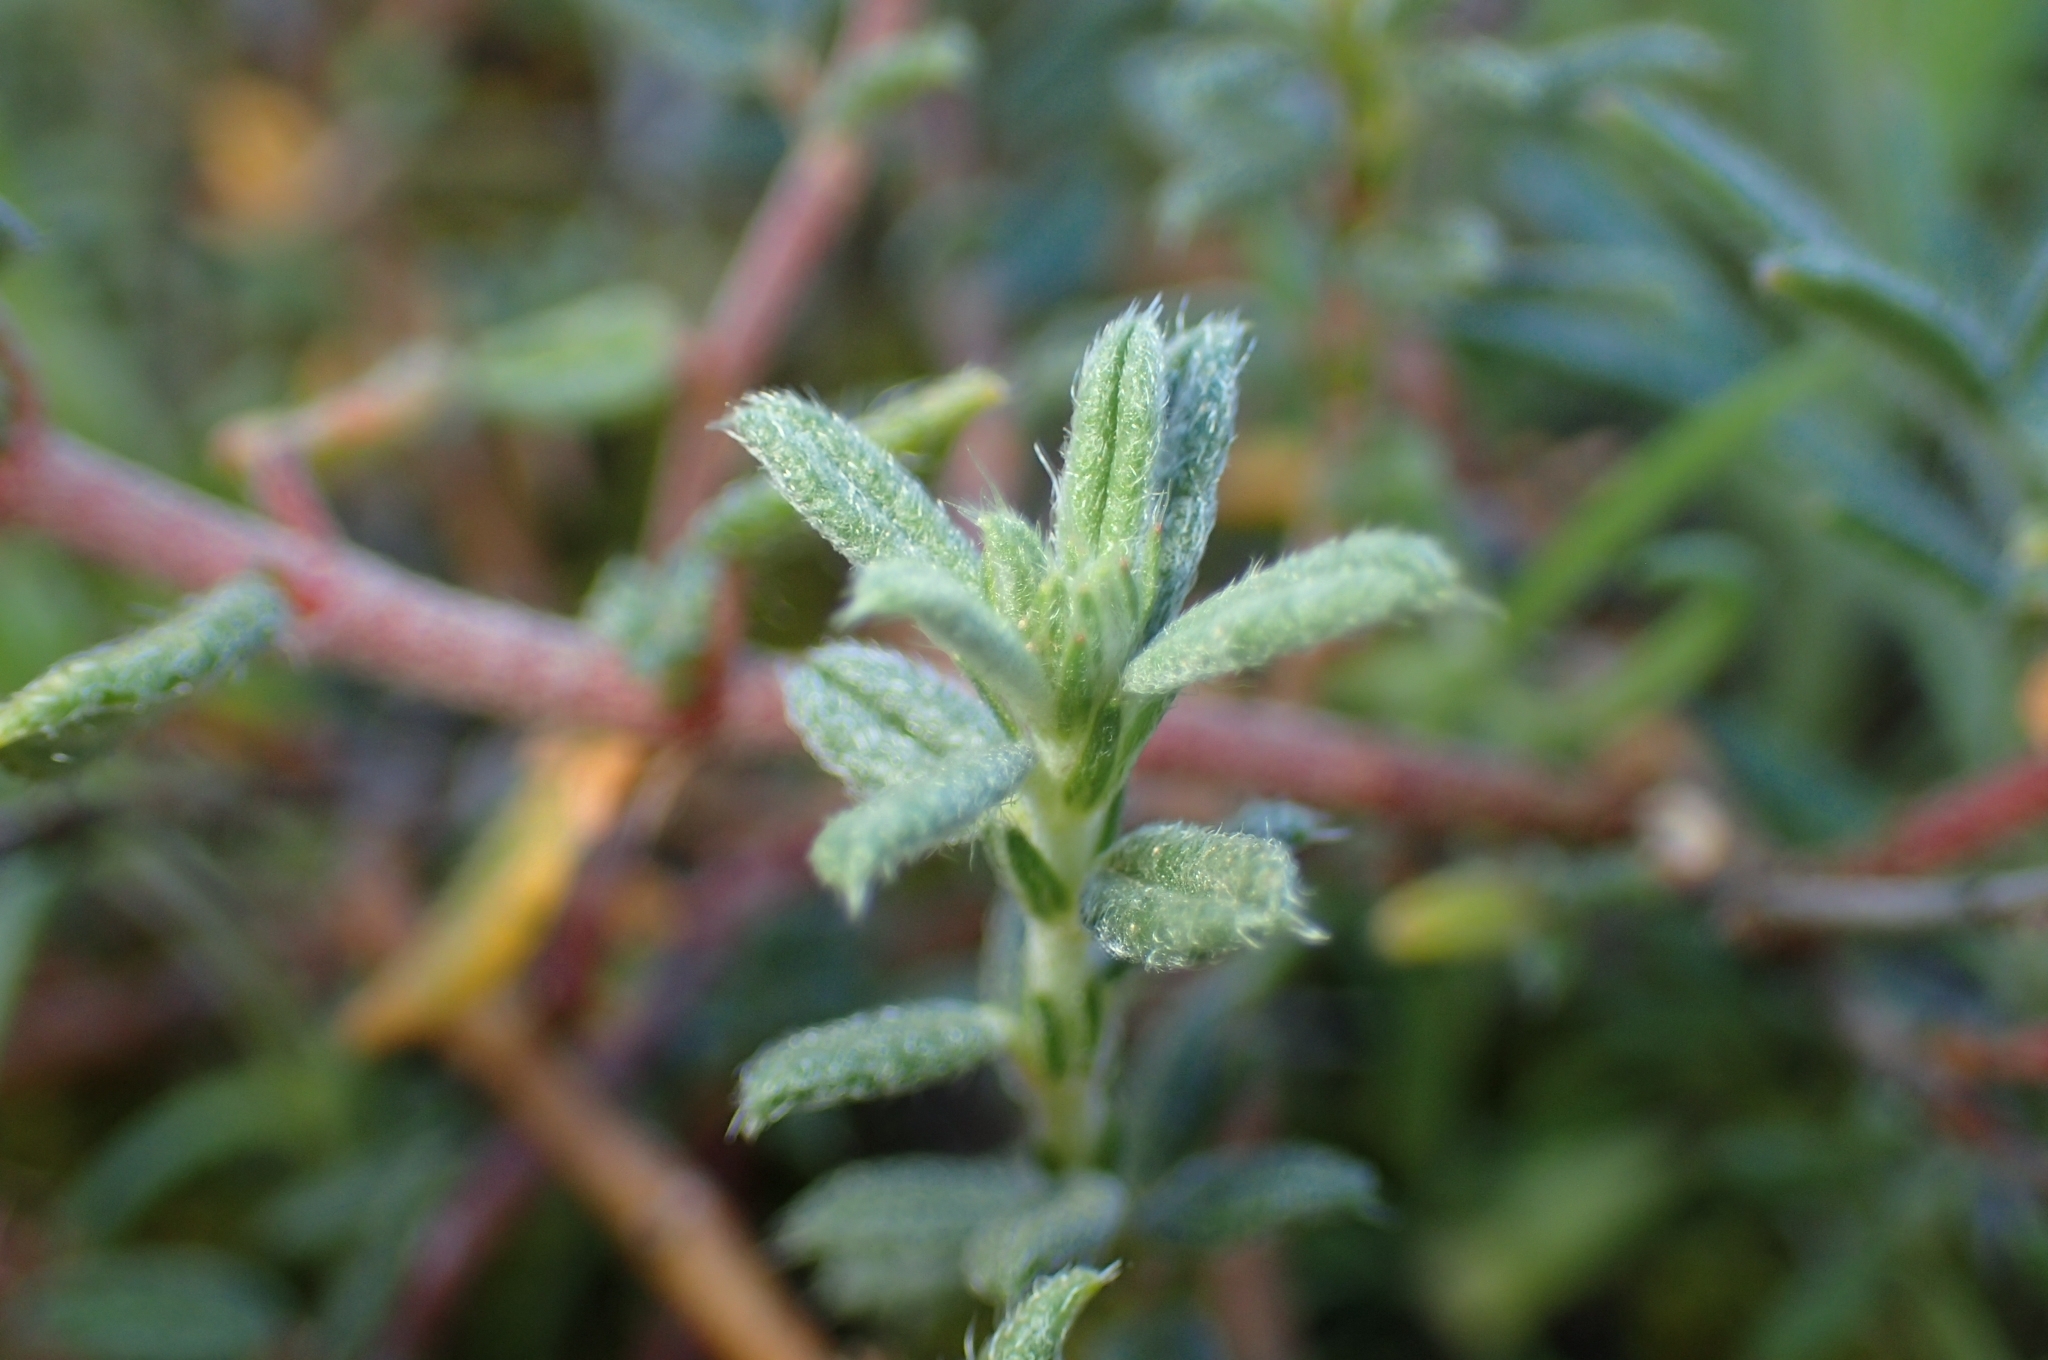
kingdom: Plantae
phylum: Tracheophyta
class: Magnoliopsida
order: Malvales
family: Cistaceae
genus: Helianthemum
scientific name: Helianthemum asperum
